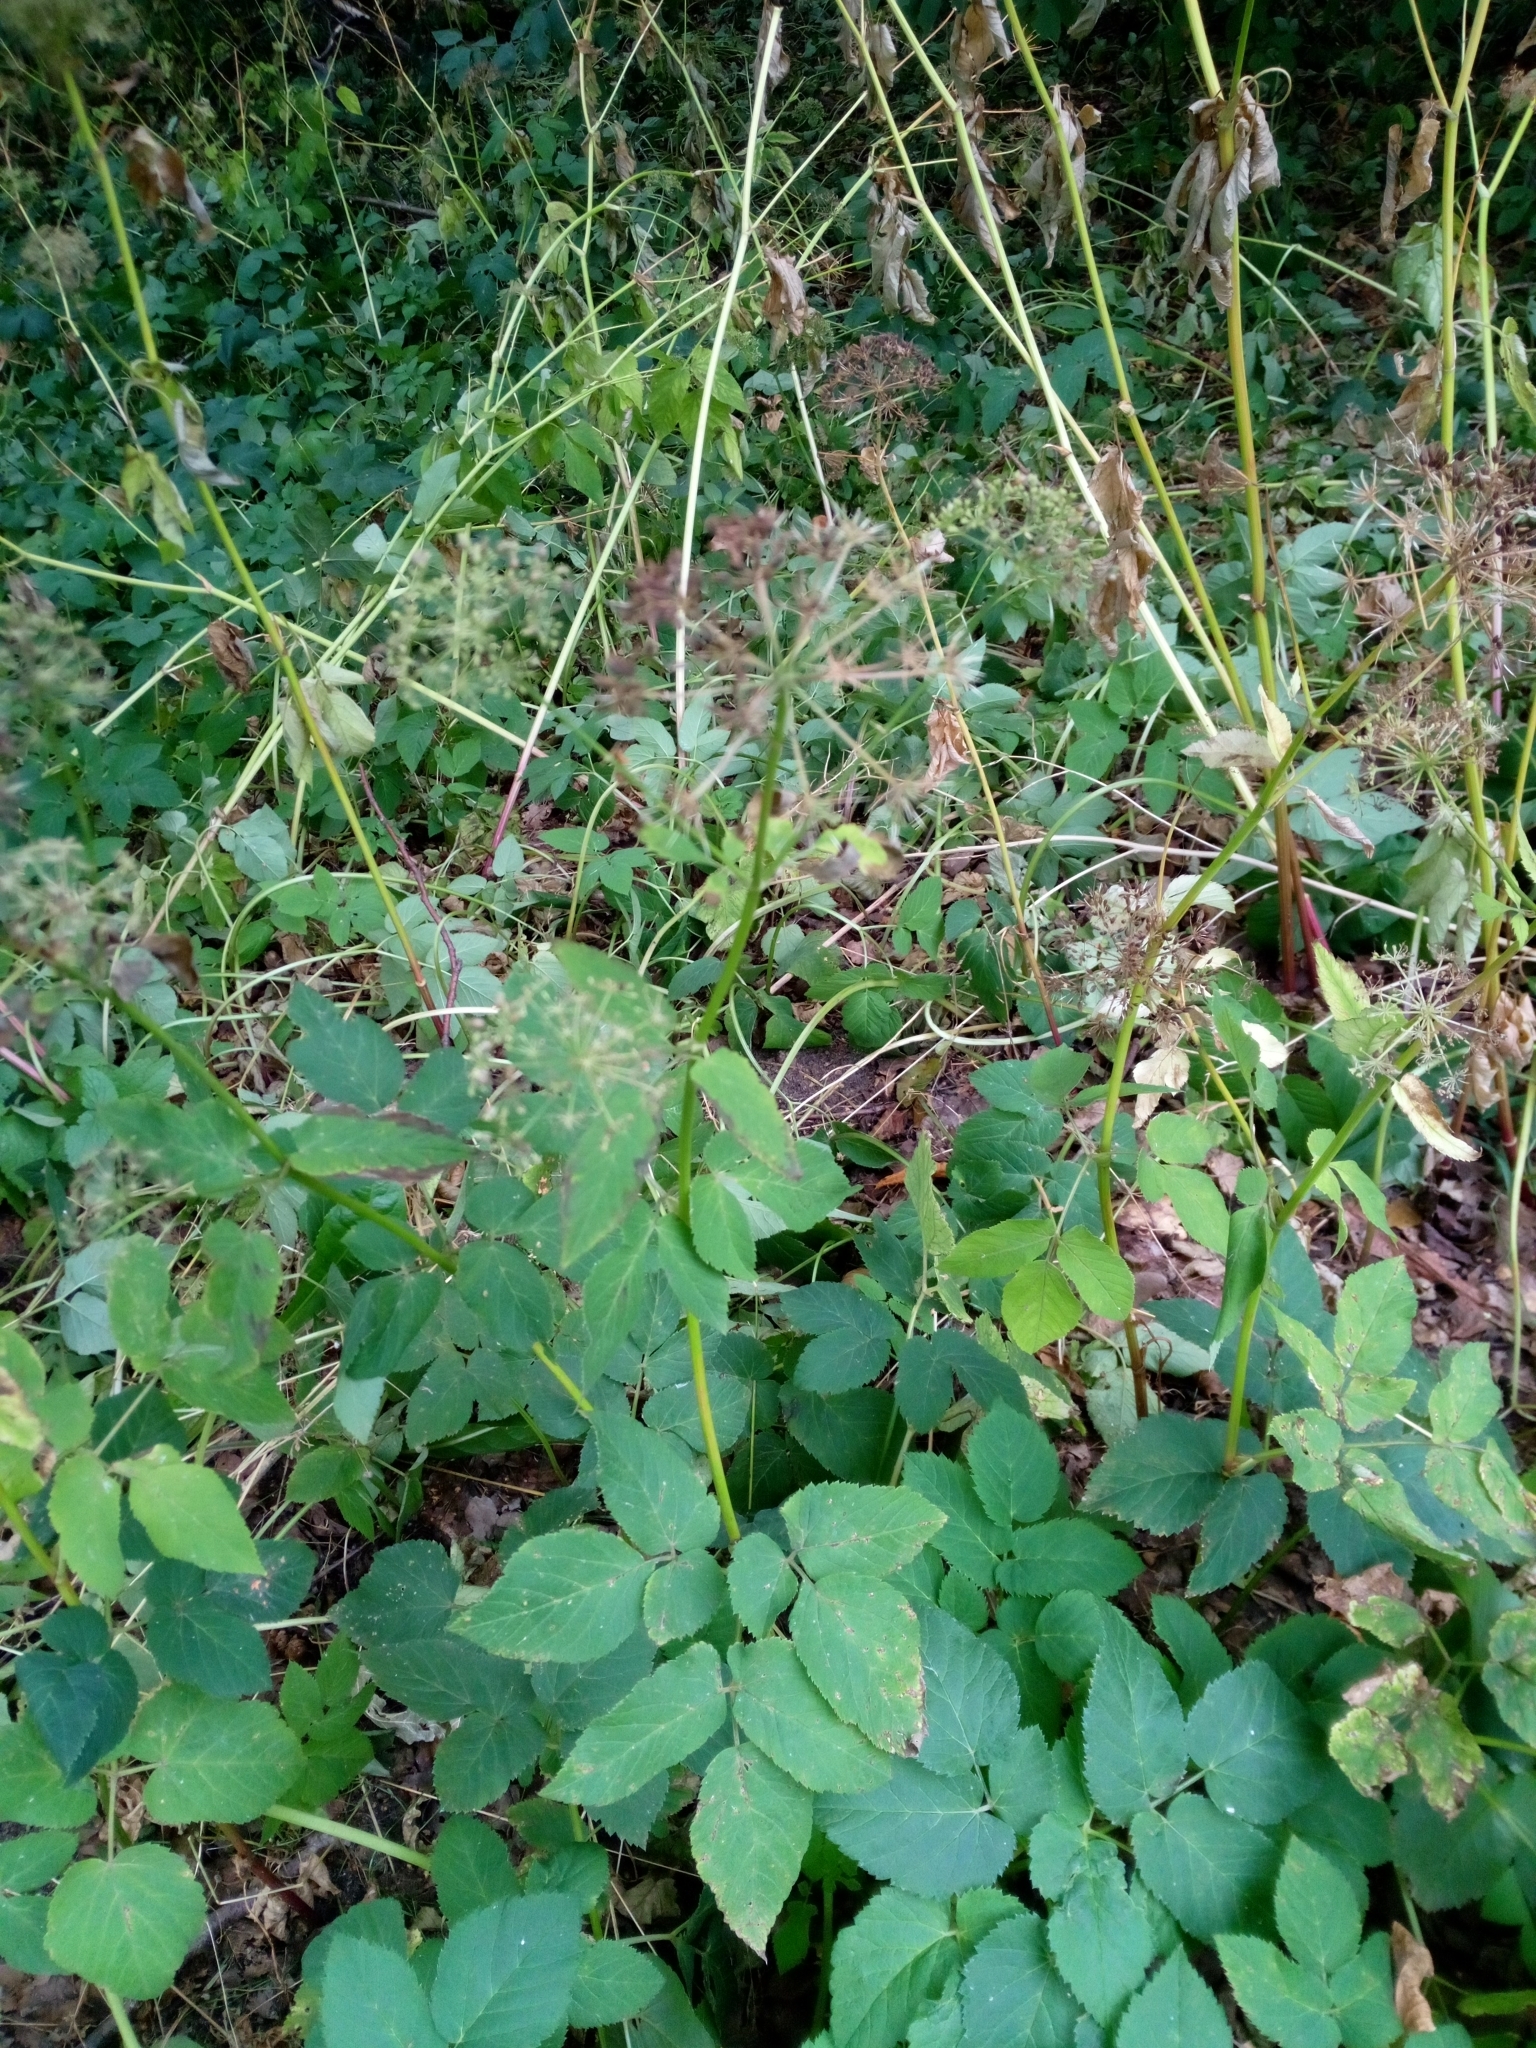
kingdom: Plantae
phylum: Tracheophyta
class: Magnoliopsida
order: Apiales
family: Apiaceae
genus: Aegopodium
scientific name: Aegopodium podagraria
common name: Ground-elder
